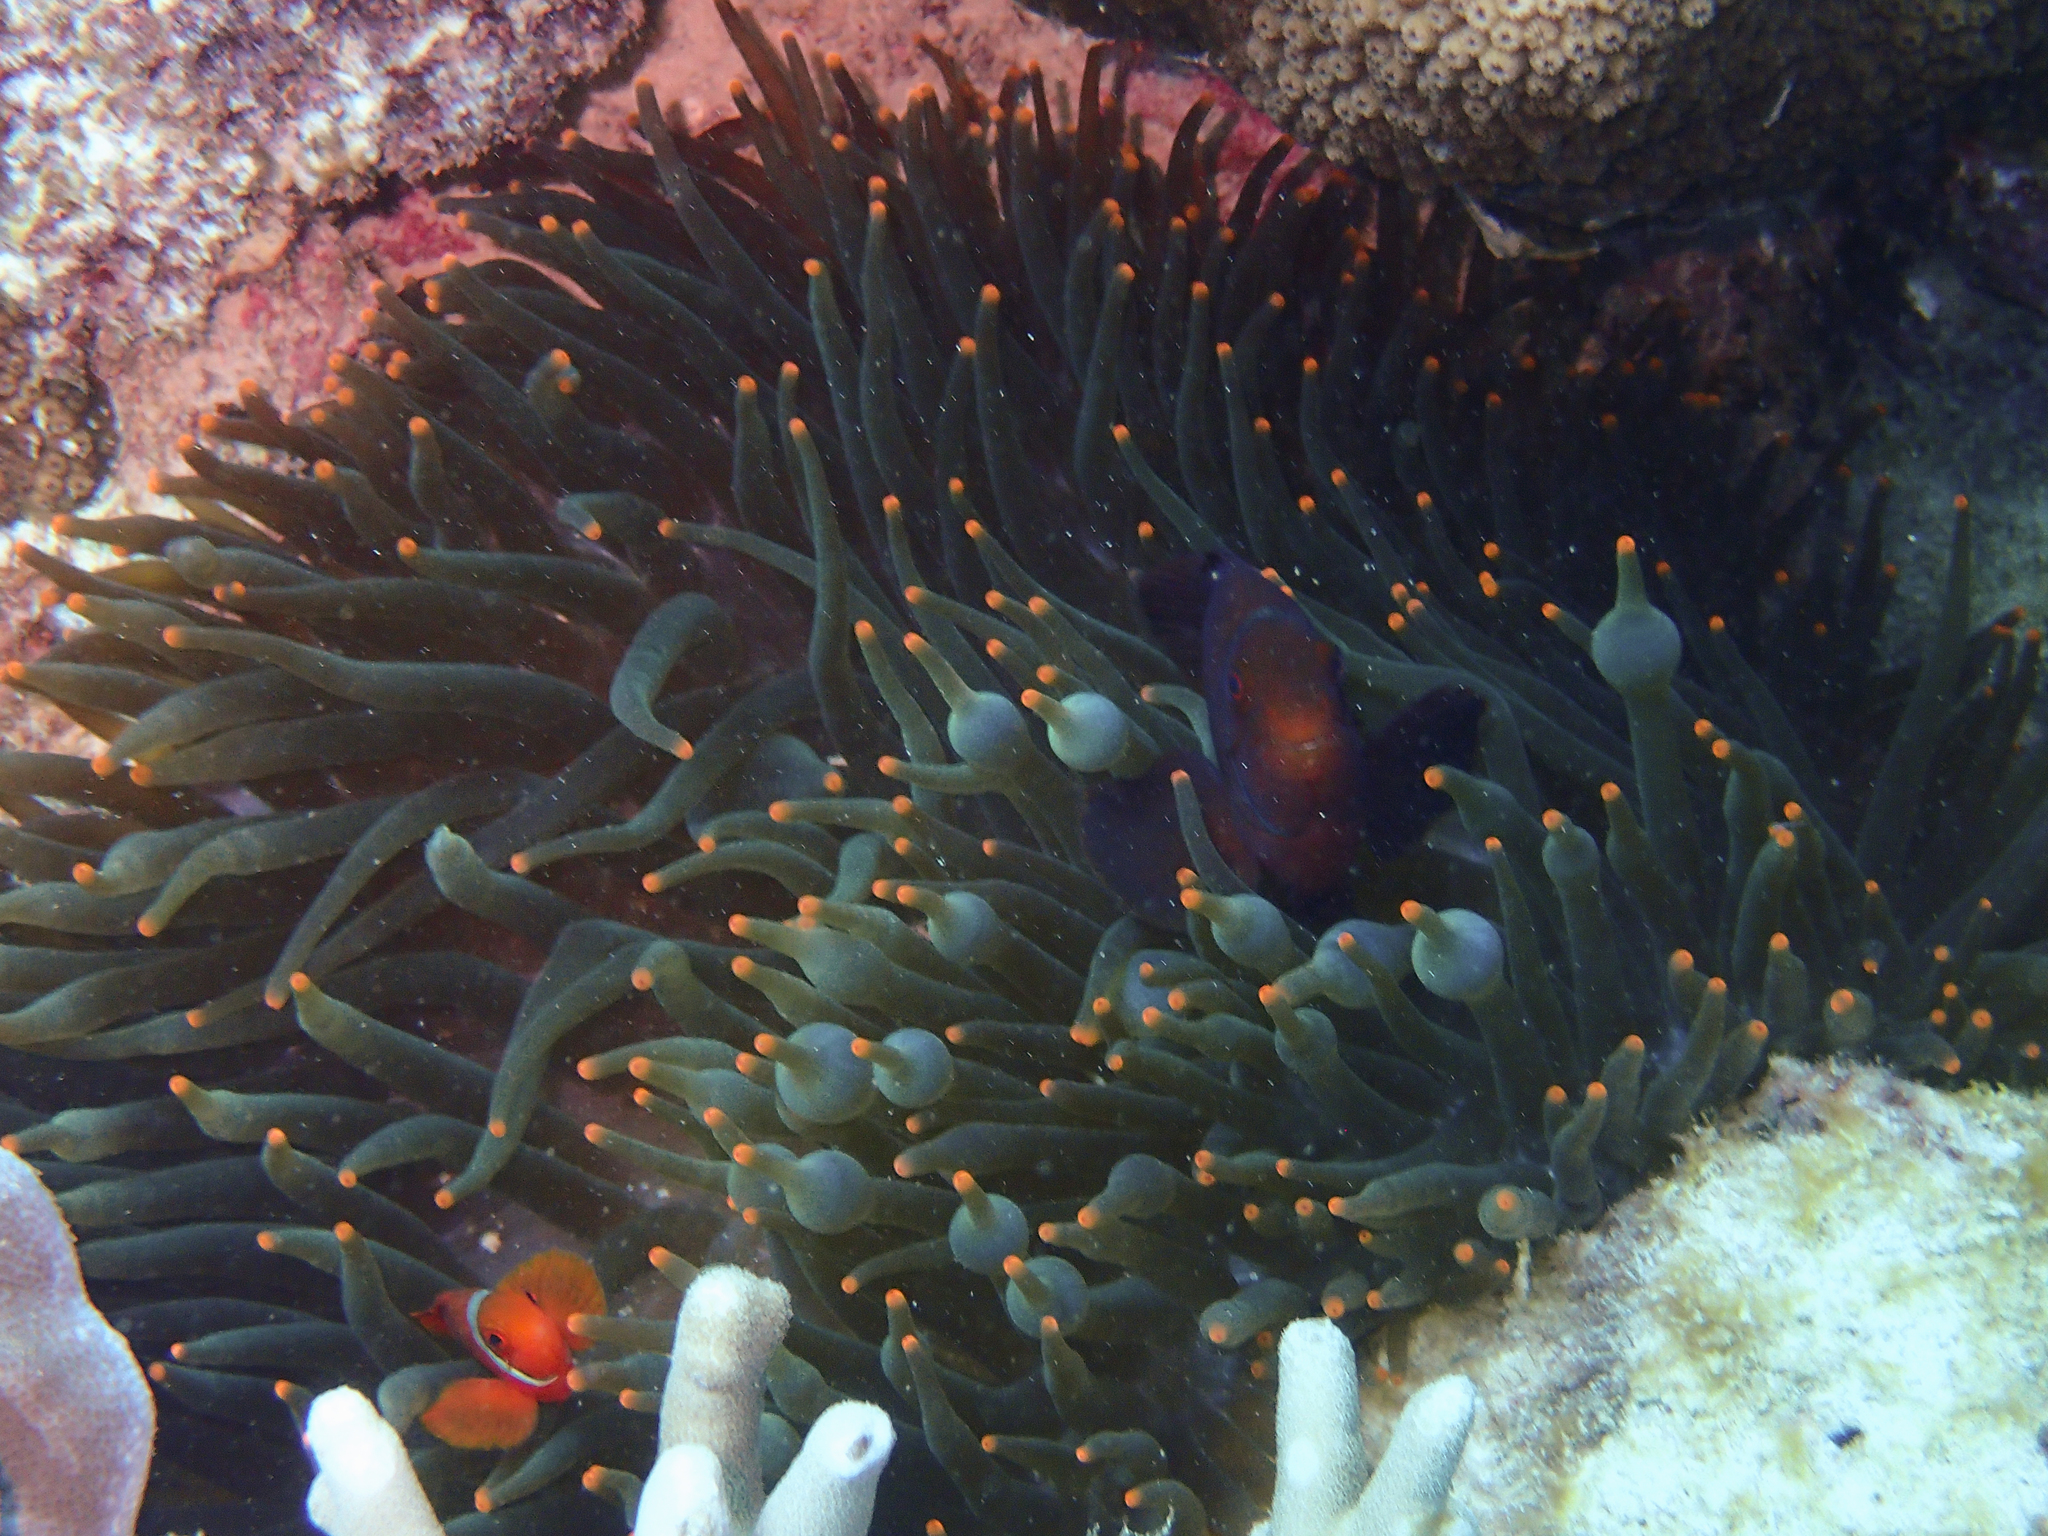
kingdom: Animalia
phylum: Cnidaria
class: Anthozoa
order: Actiniaria
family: Actiniidae
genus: Entacmaea
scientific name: Entacmaea quadricolor
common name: Bulb tentacle sea anemone
